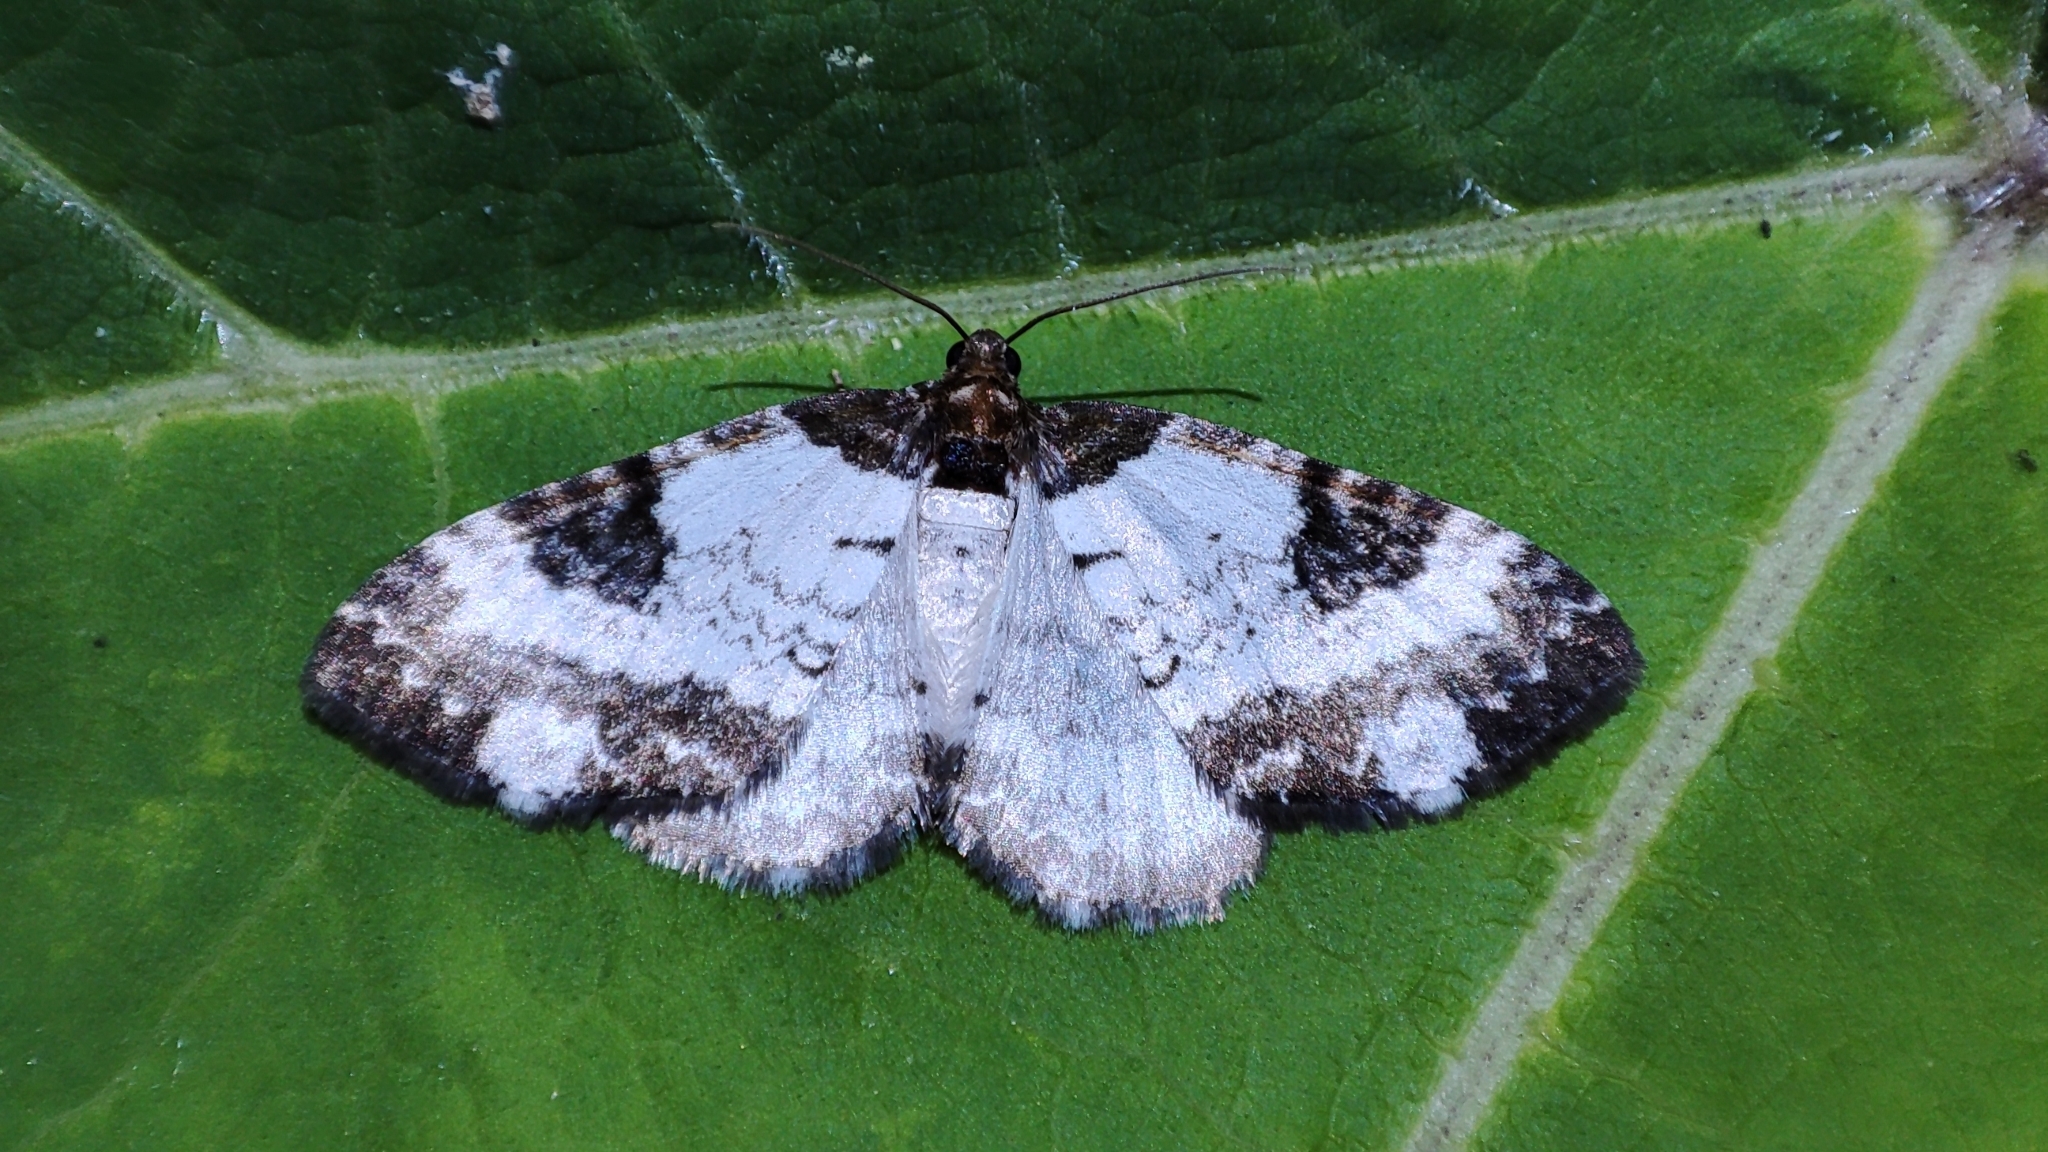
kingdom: Animalia
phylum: Arthropoda
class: Insecta
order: Lepidoptera
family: Geometridae
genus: Melanthia
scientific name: Melanthia procellata
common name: Pretty chalk carpet
